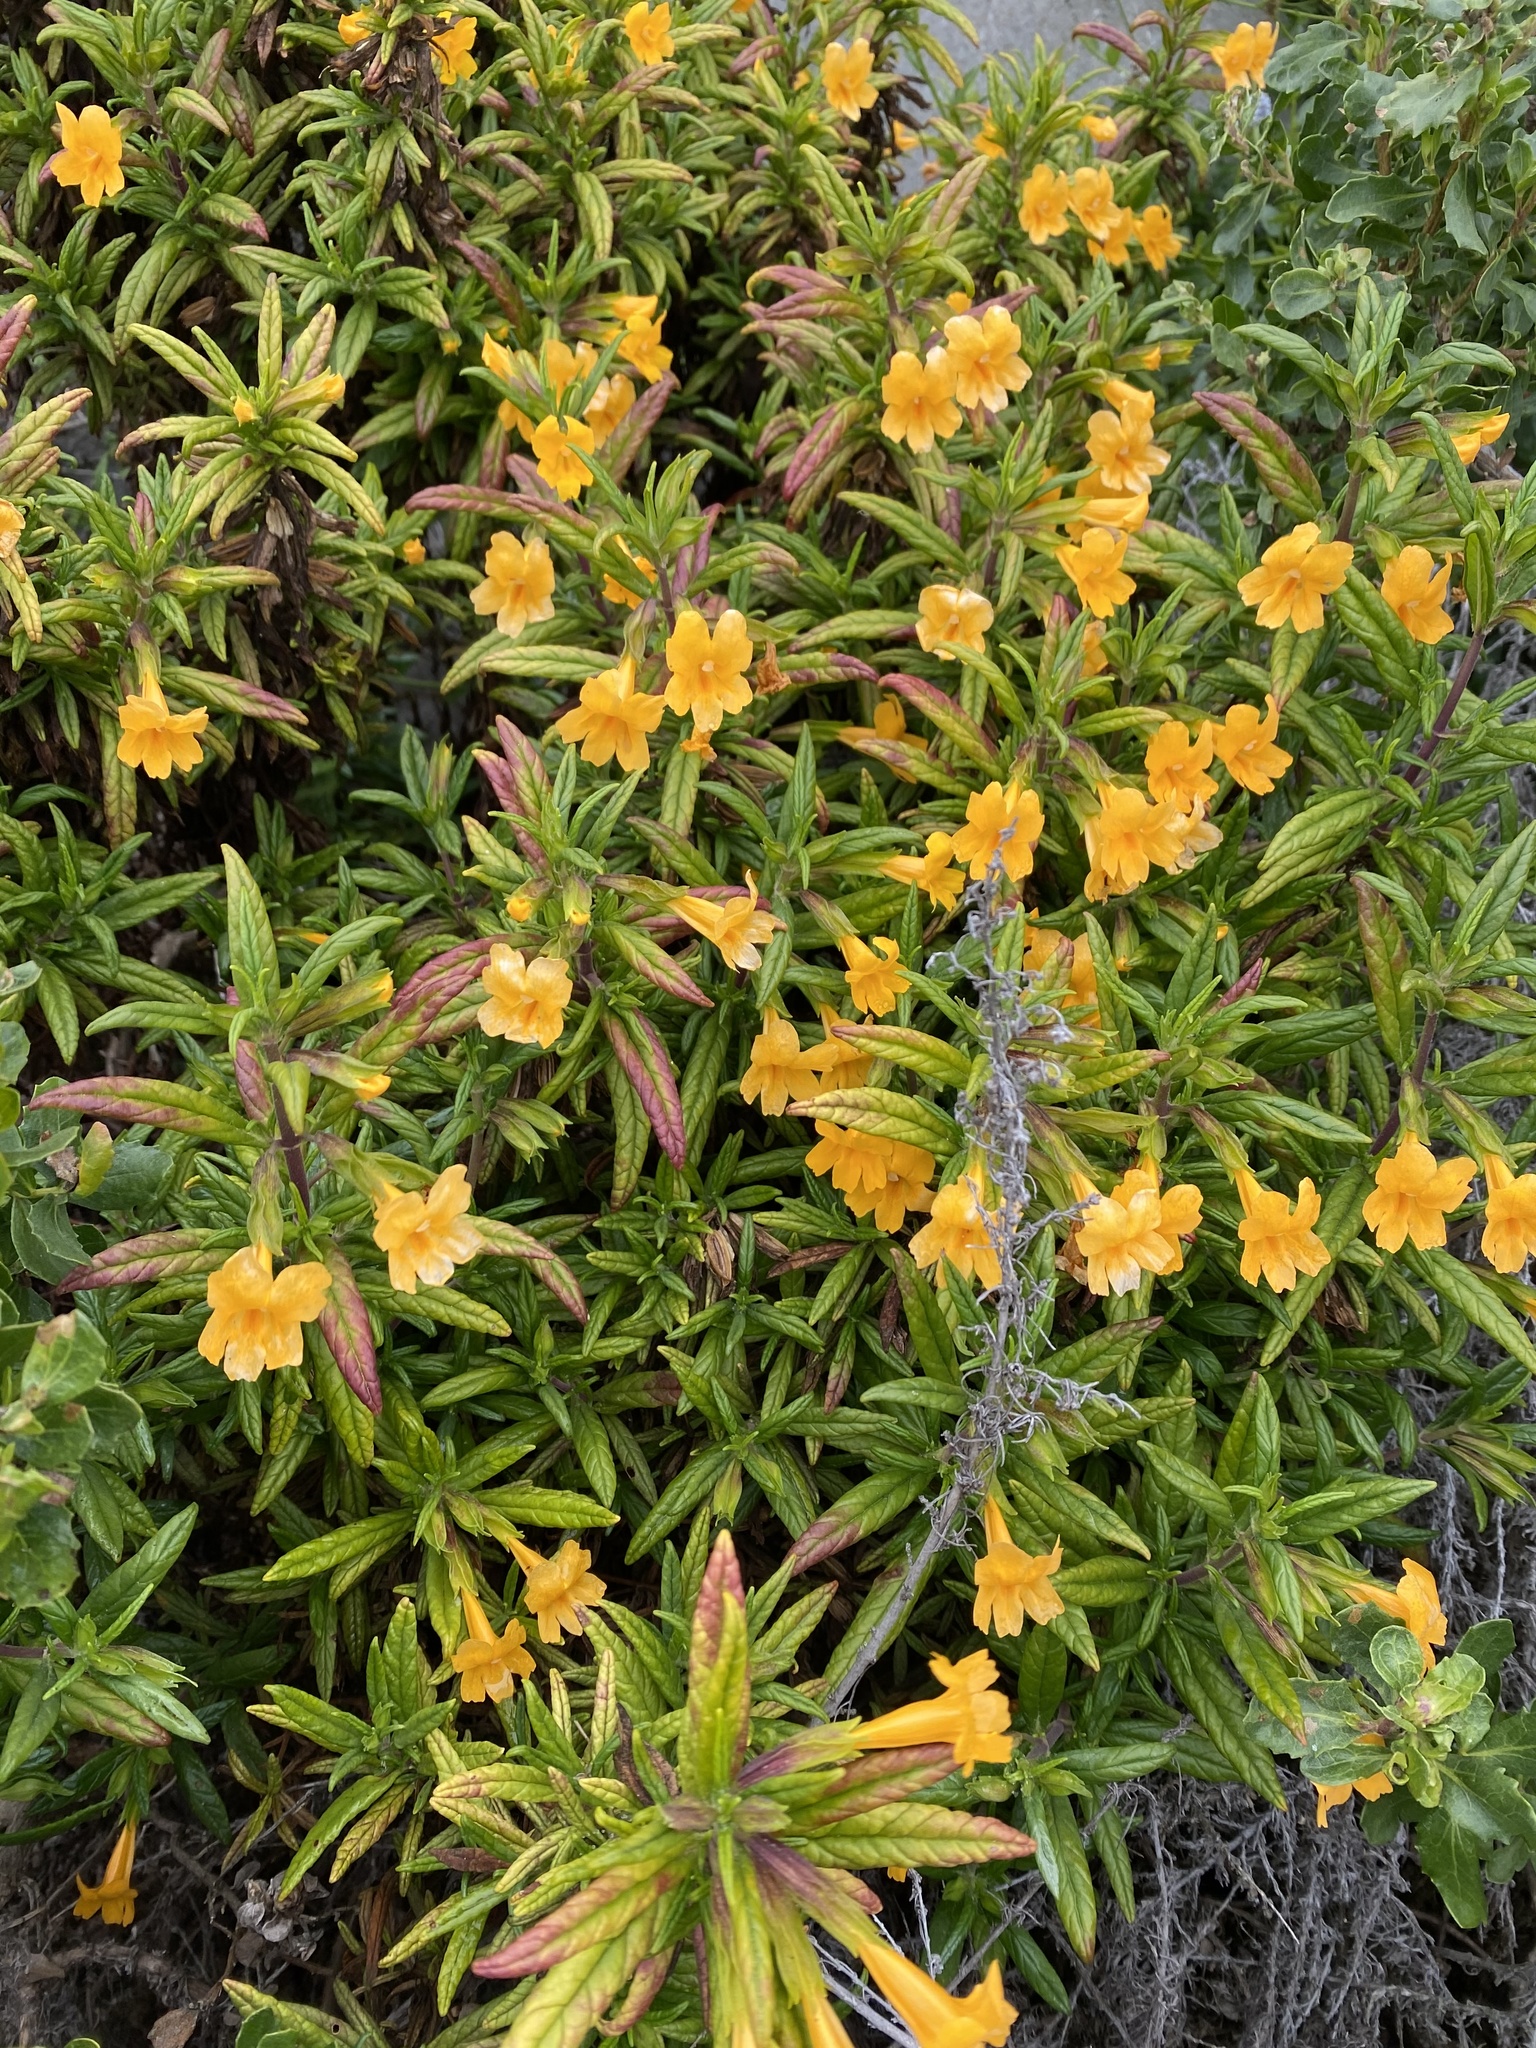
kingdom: Plantae
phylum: Tracheophyta
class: Magnoliopsida
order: Lamiales
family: Phrymaceae
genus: Diplacus
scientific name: Diplacus aurantiacus
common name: Bush monkey-flower
